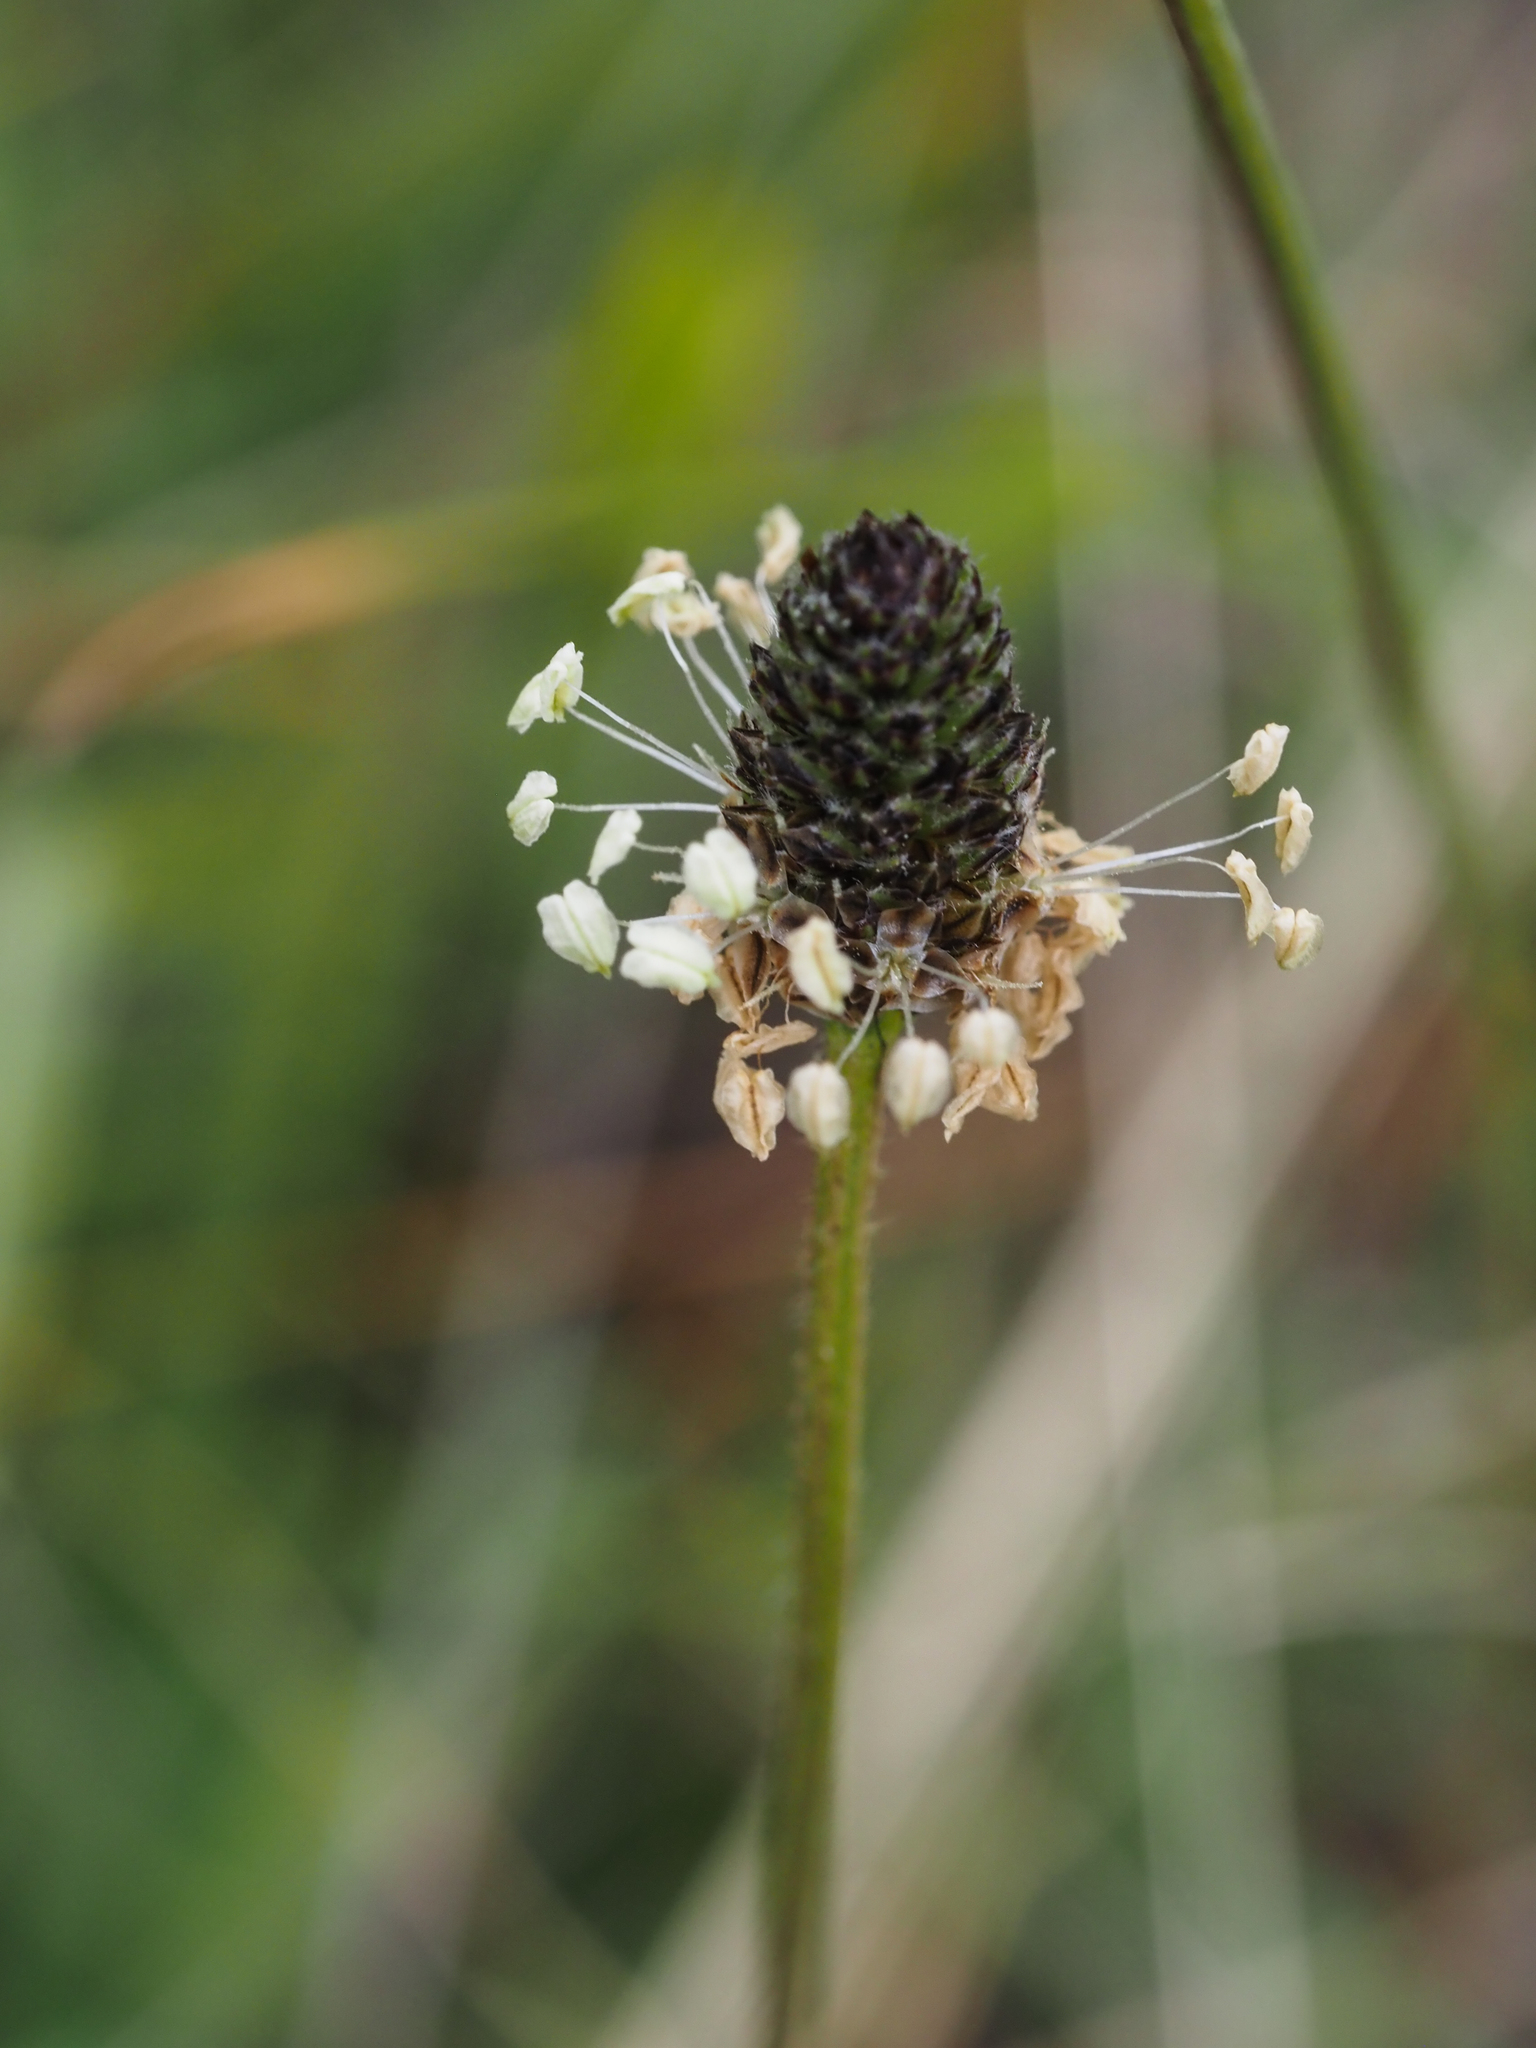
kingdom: Plantae
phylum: Tracheophyta
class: Magnoliopsida
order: Lamiales
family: Plantaginaceae
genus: Plantago
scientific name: Plantago lanceolata
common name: Ribwort plantain
